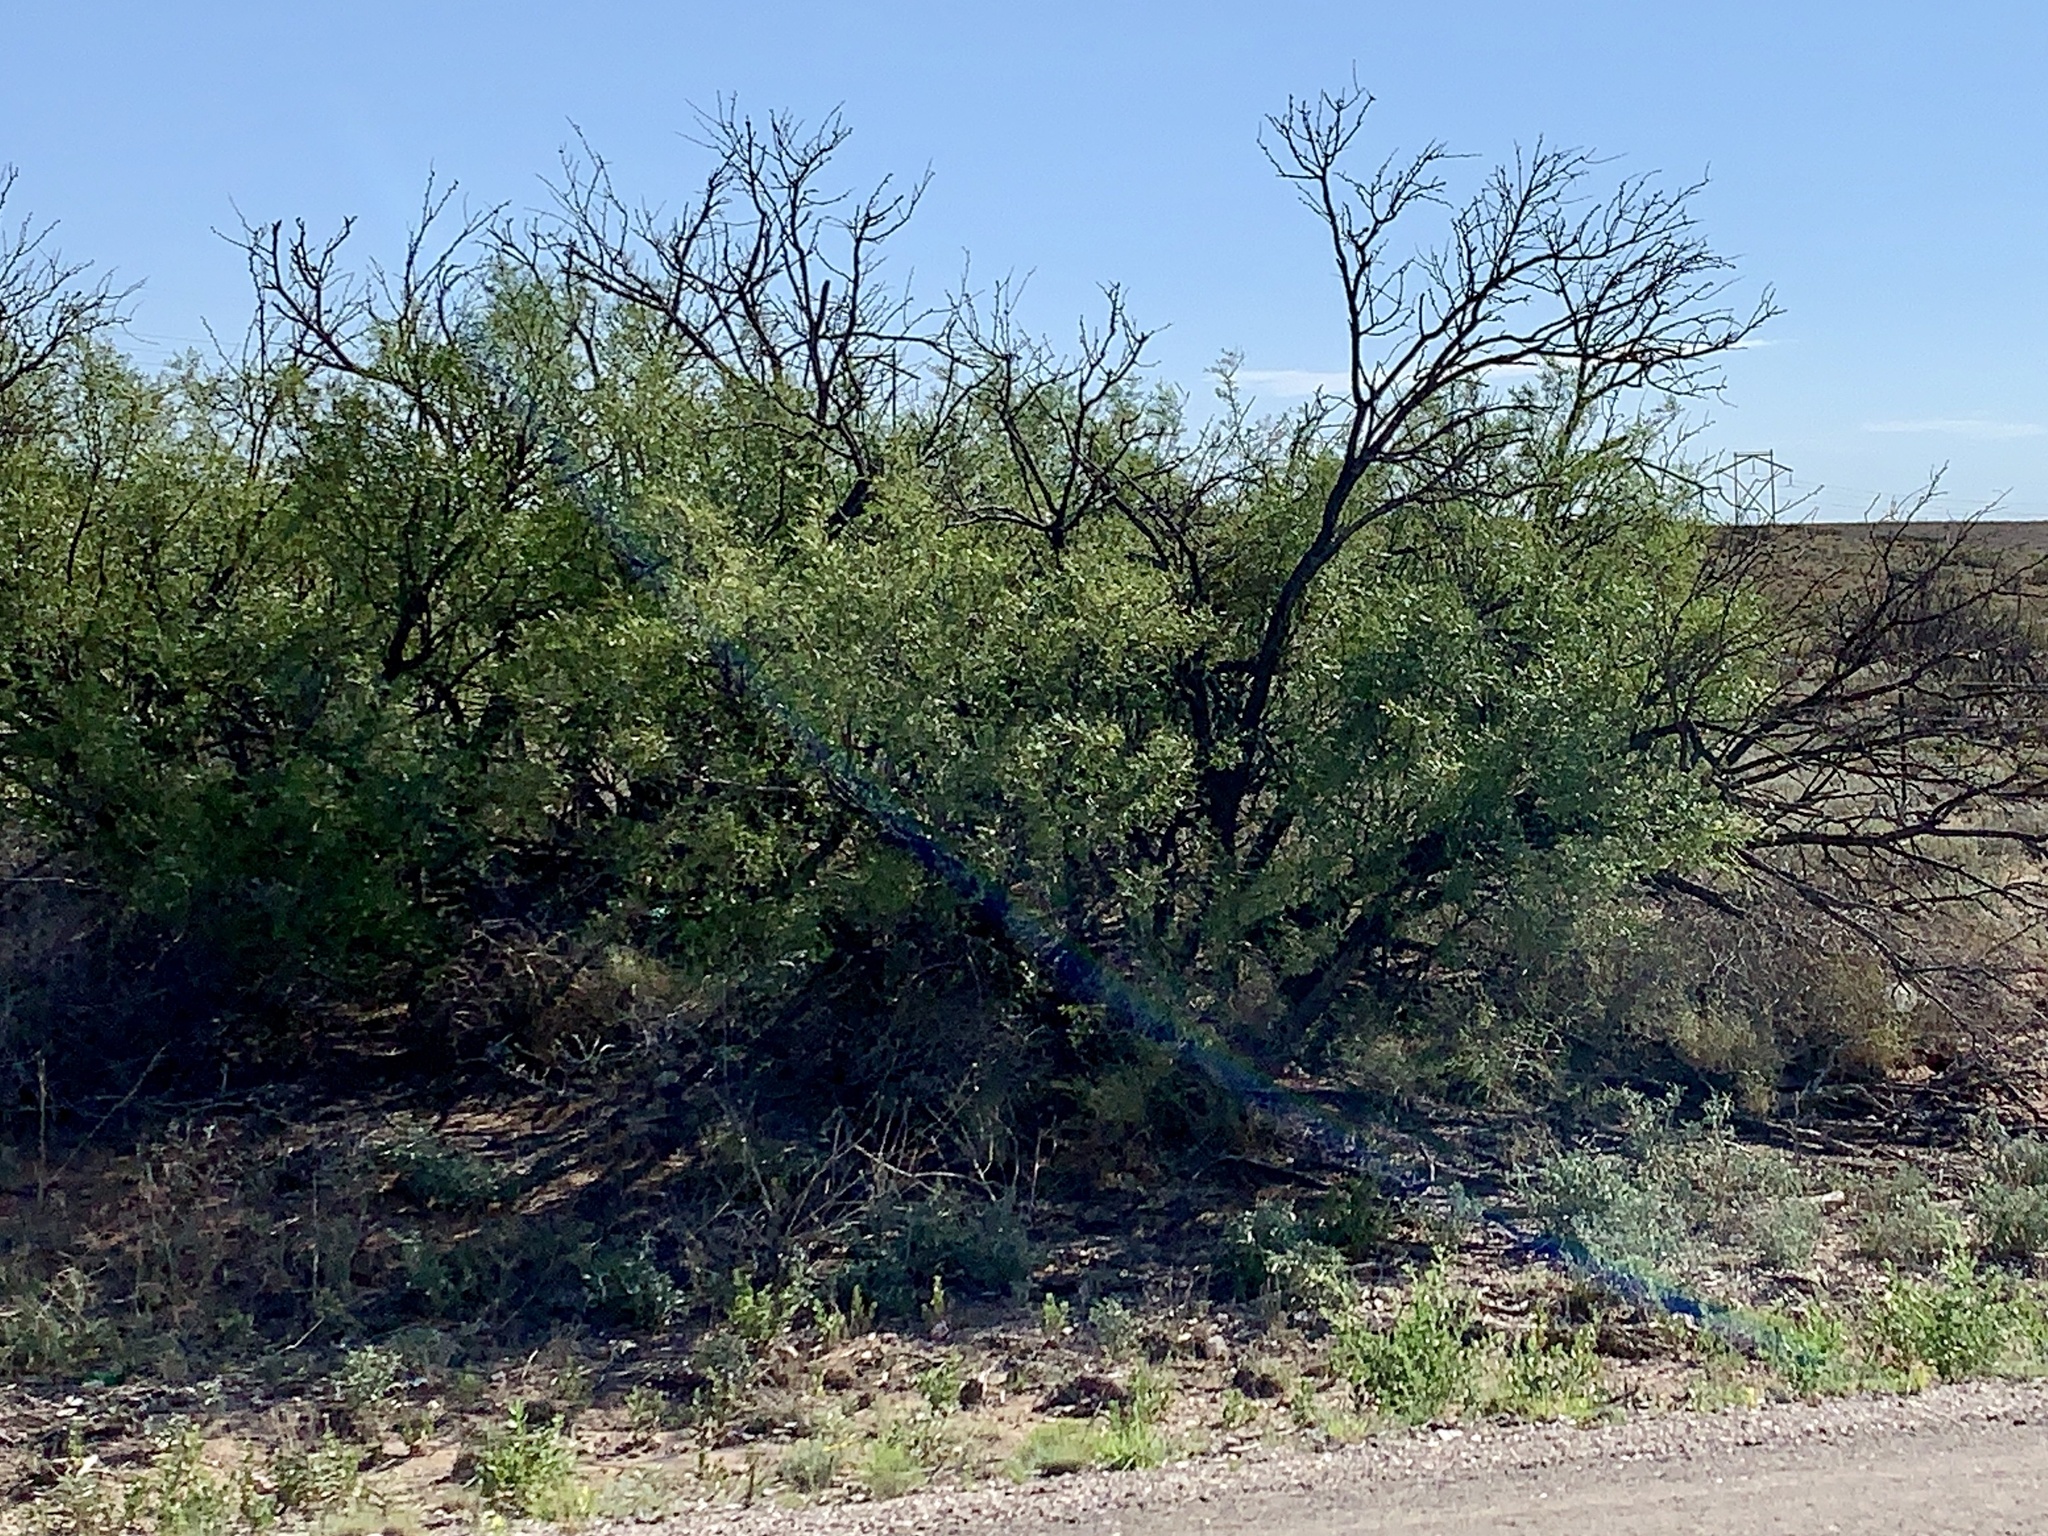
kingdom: Plantae
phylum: Tracheophyta
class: Magnoliopsida
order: Fabales
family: Fabaceae
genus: Prosopis
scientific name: Prosopis glandulosa
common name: Honey mesquite
